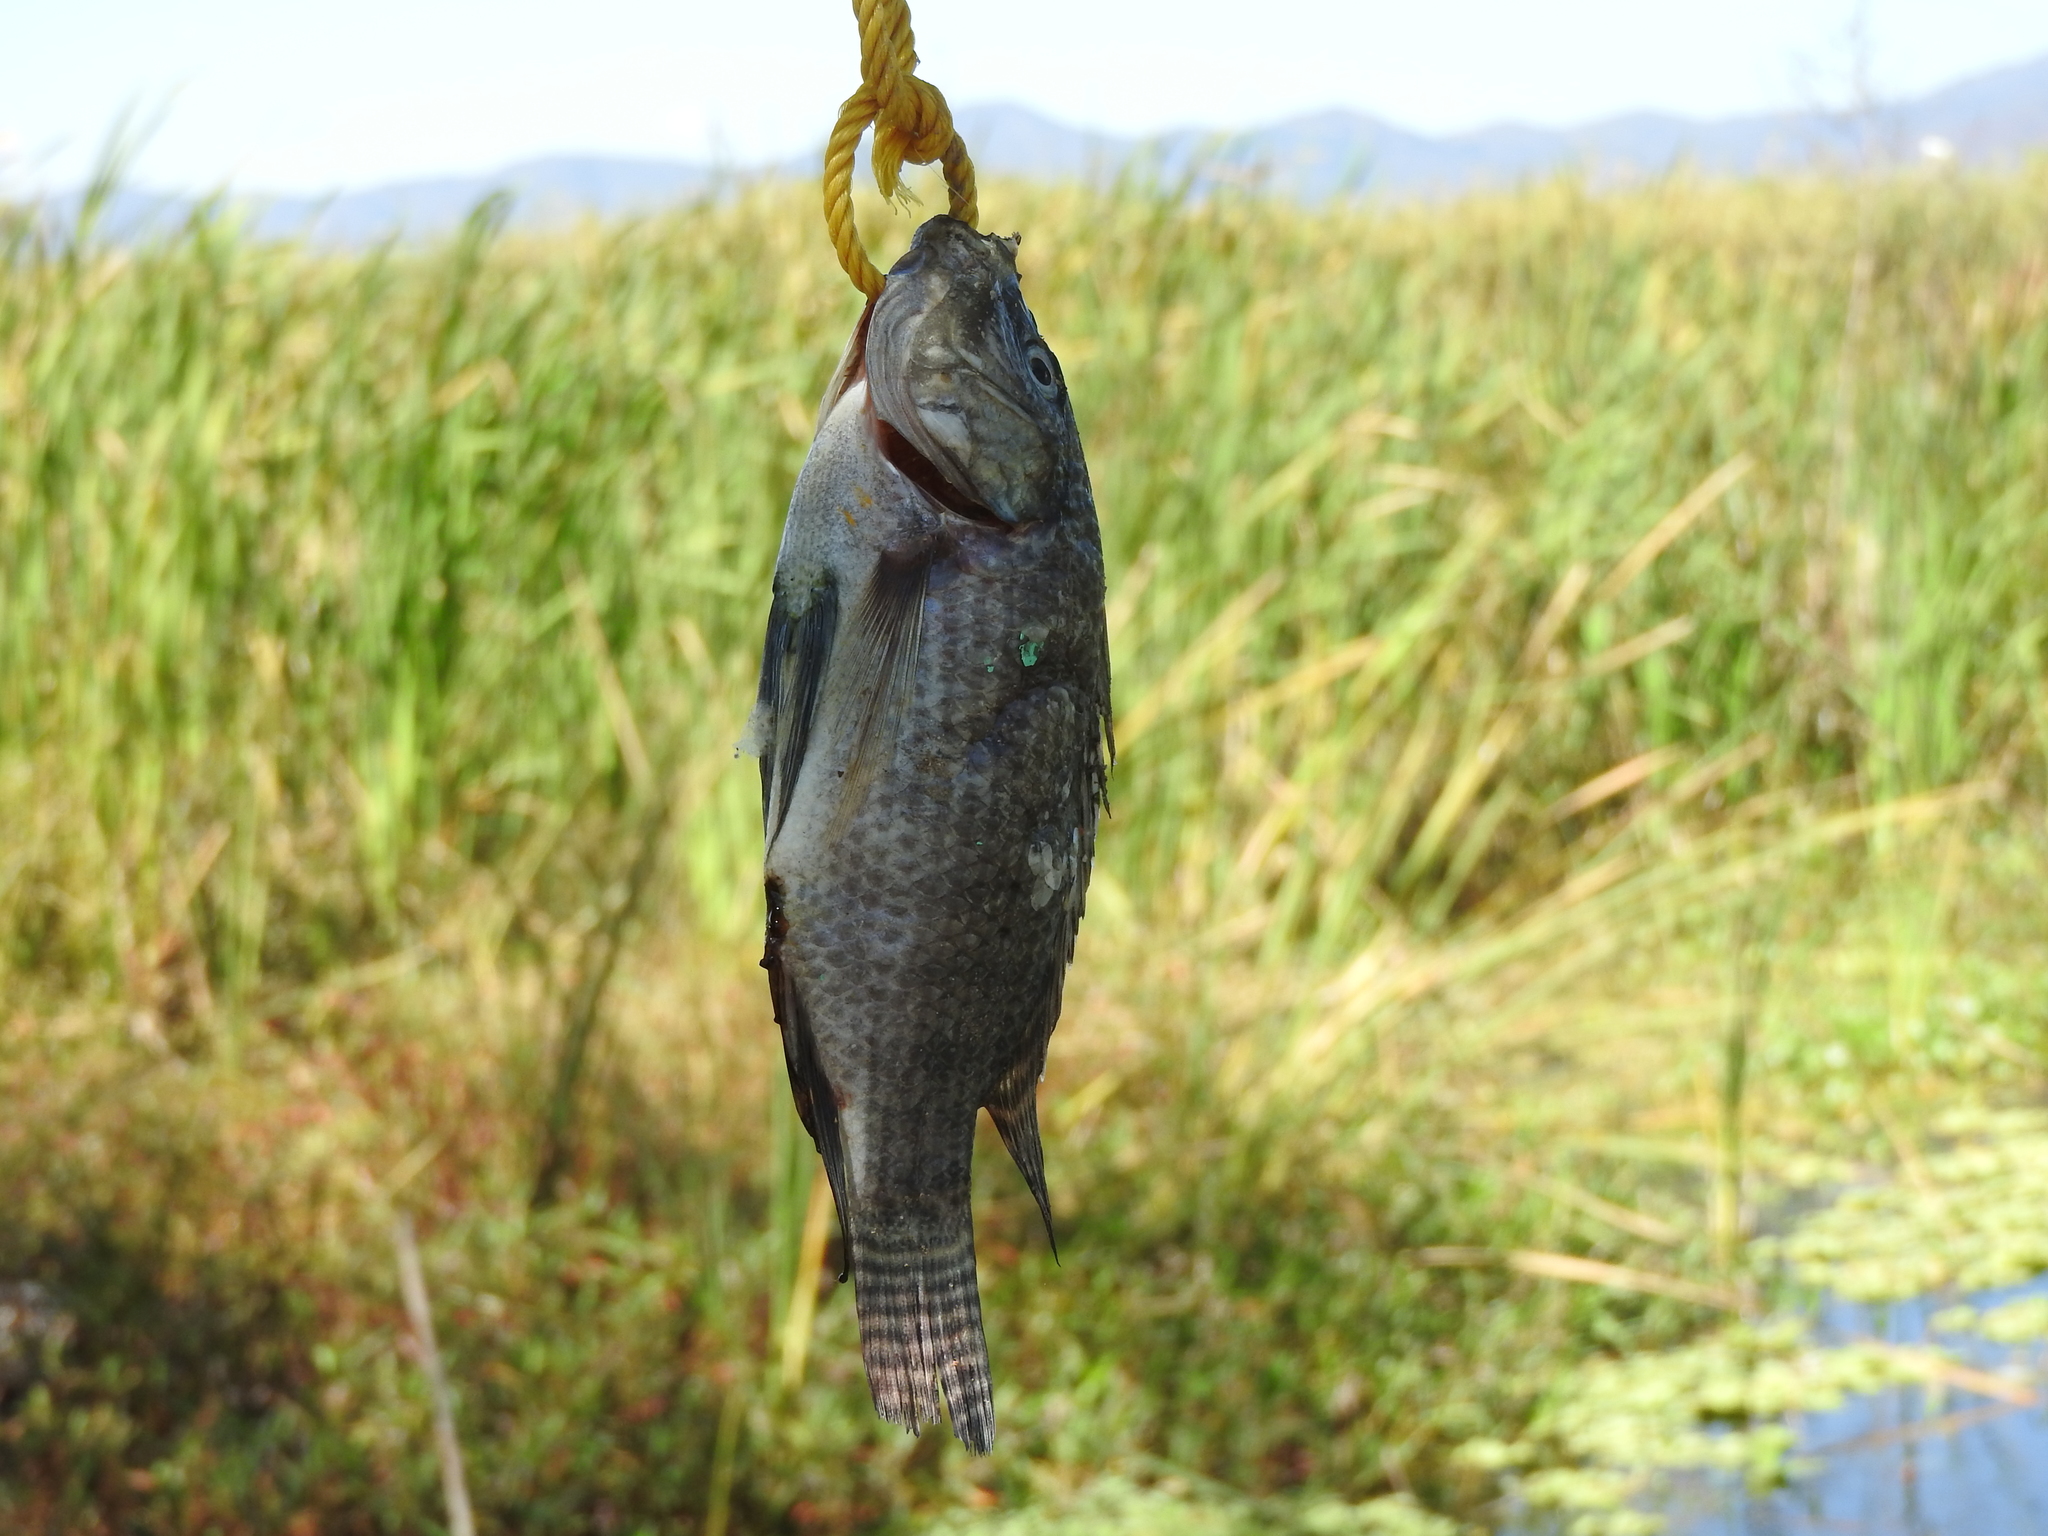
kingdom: Animalia
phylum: Chordata
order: Perciformes
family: Cichlidae
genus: Oreochromis
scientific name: Oreochromis niloticus
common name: Nile tilapia
